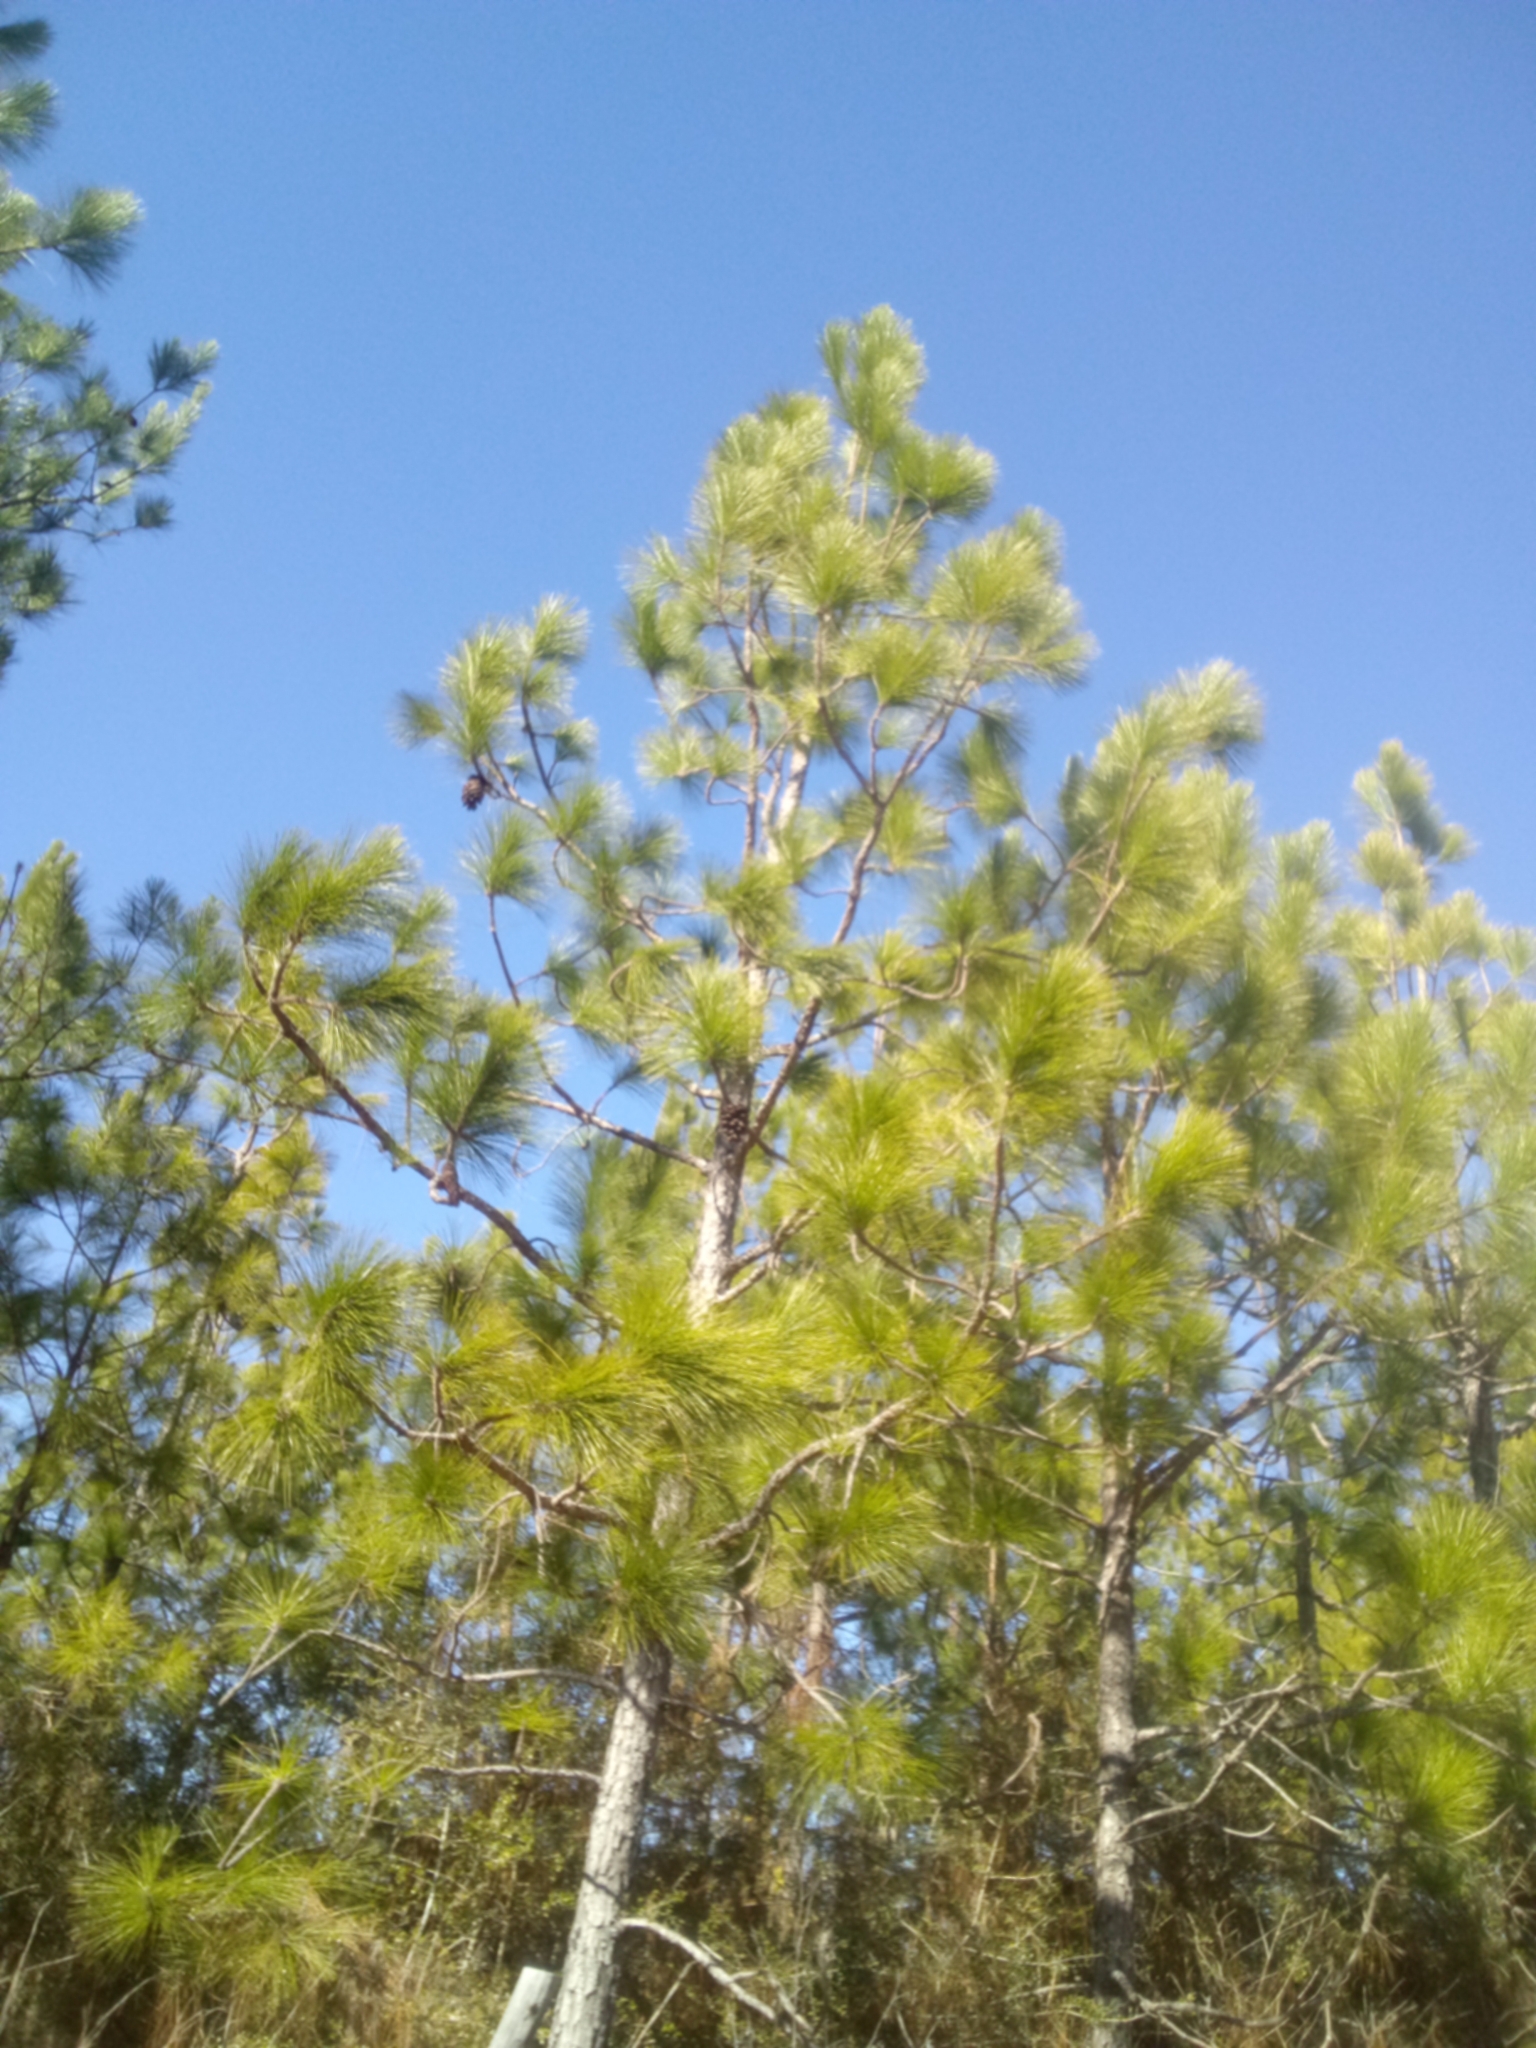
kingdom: Plantae
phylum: Tracheophyta
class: Pinopsida
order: Pinales
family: Pinaceae
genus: Pinus
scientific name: Pinus palustris
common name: Longleaf pine
